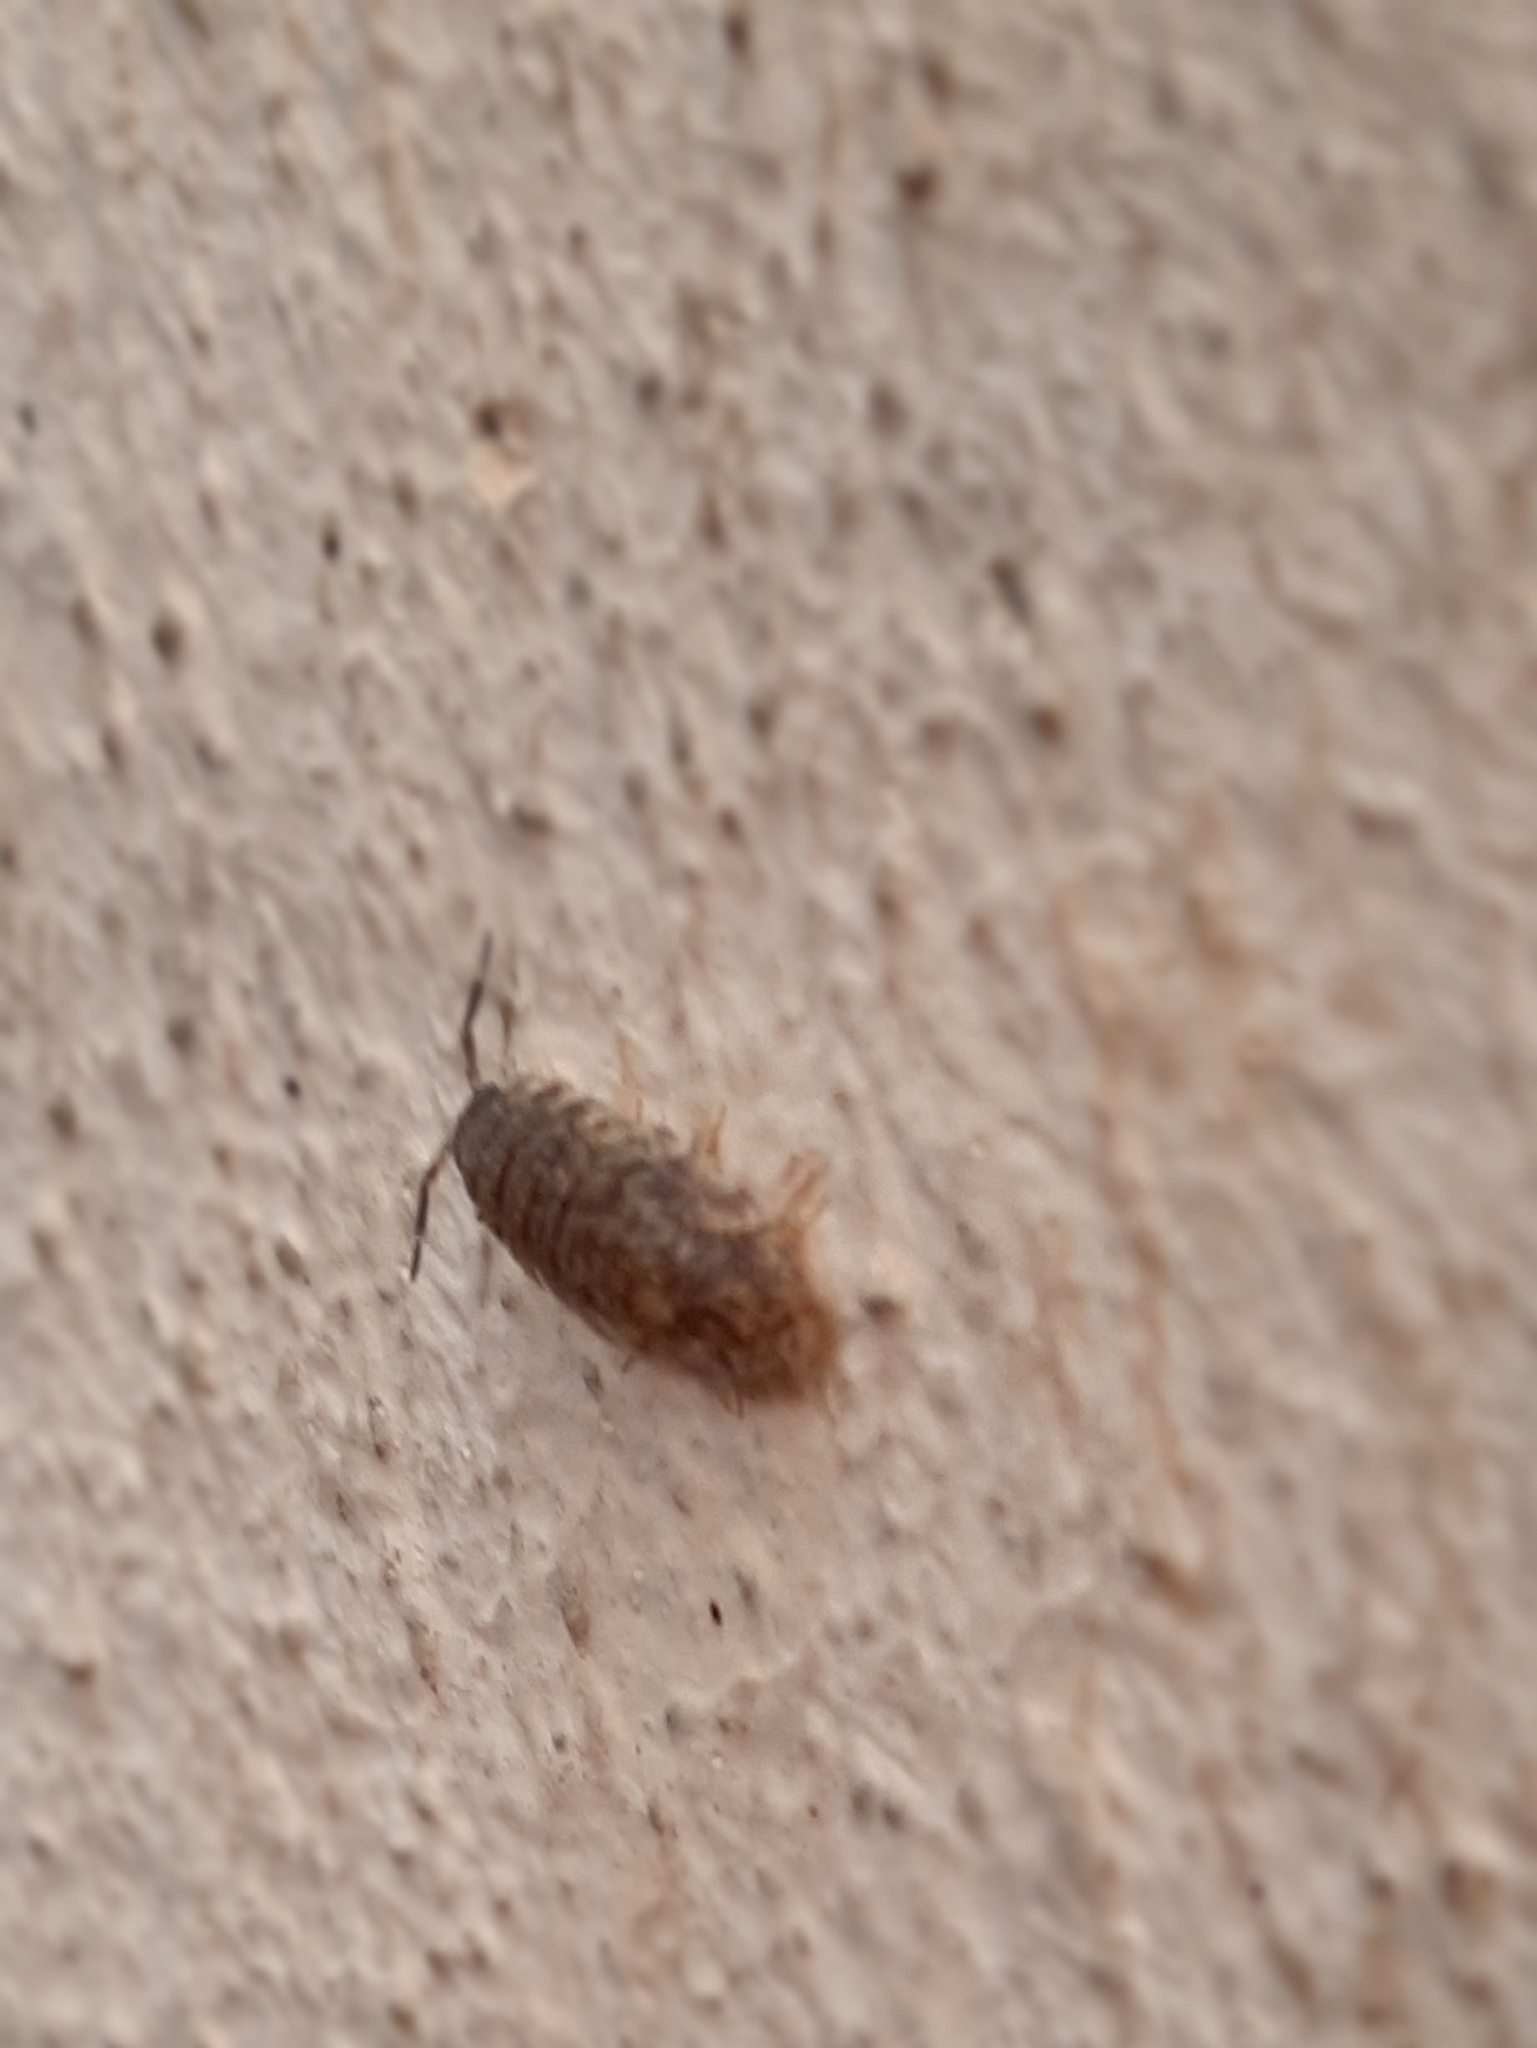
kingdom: Animalia
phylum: Arthropoda
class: Malacostraca
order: Isopoda
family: Porcellionidae
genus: Porcellio
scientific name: Porcellio scaber
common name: Common rough woodlouse
